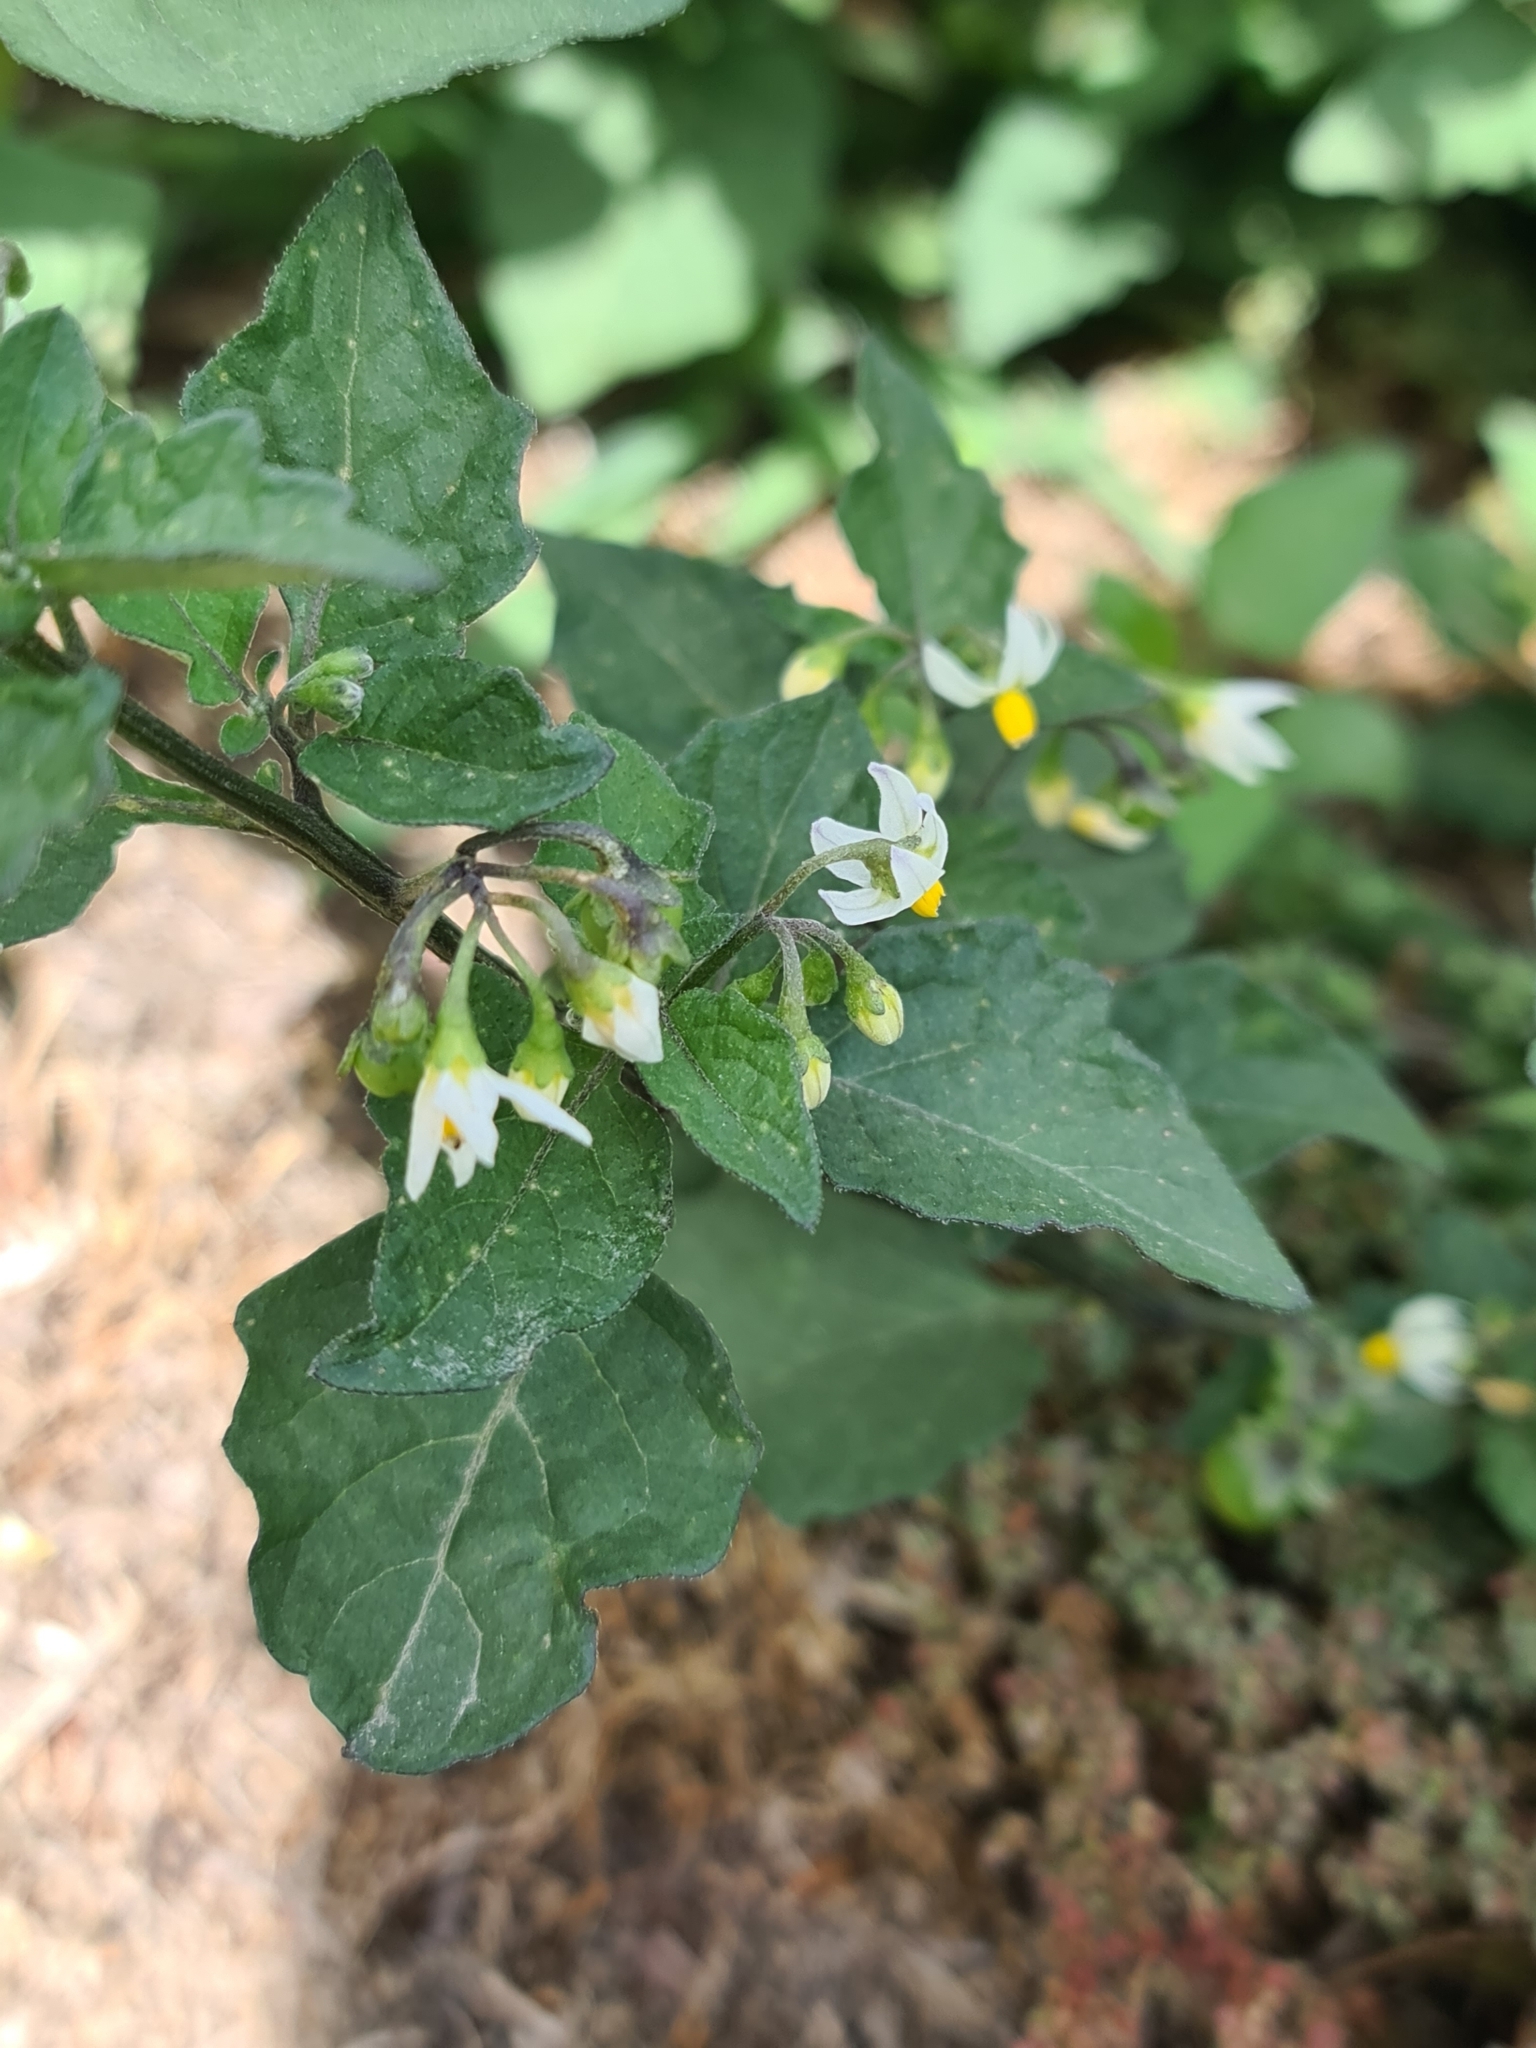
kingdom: Plantae
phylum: Tracheophyta
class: Magnoliopsida
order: Solanales
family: Solanaceae
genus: Solanum
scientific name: Solanum nigrum
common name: Black nightshade
